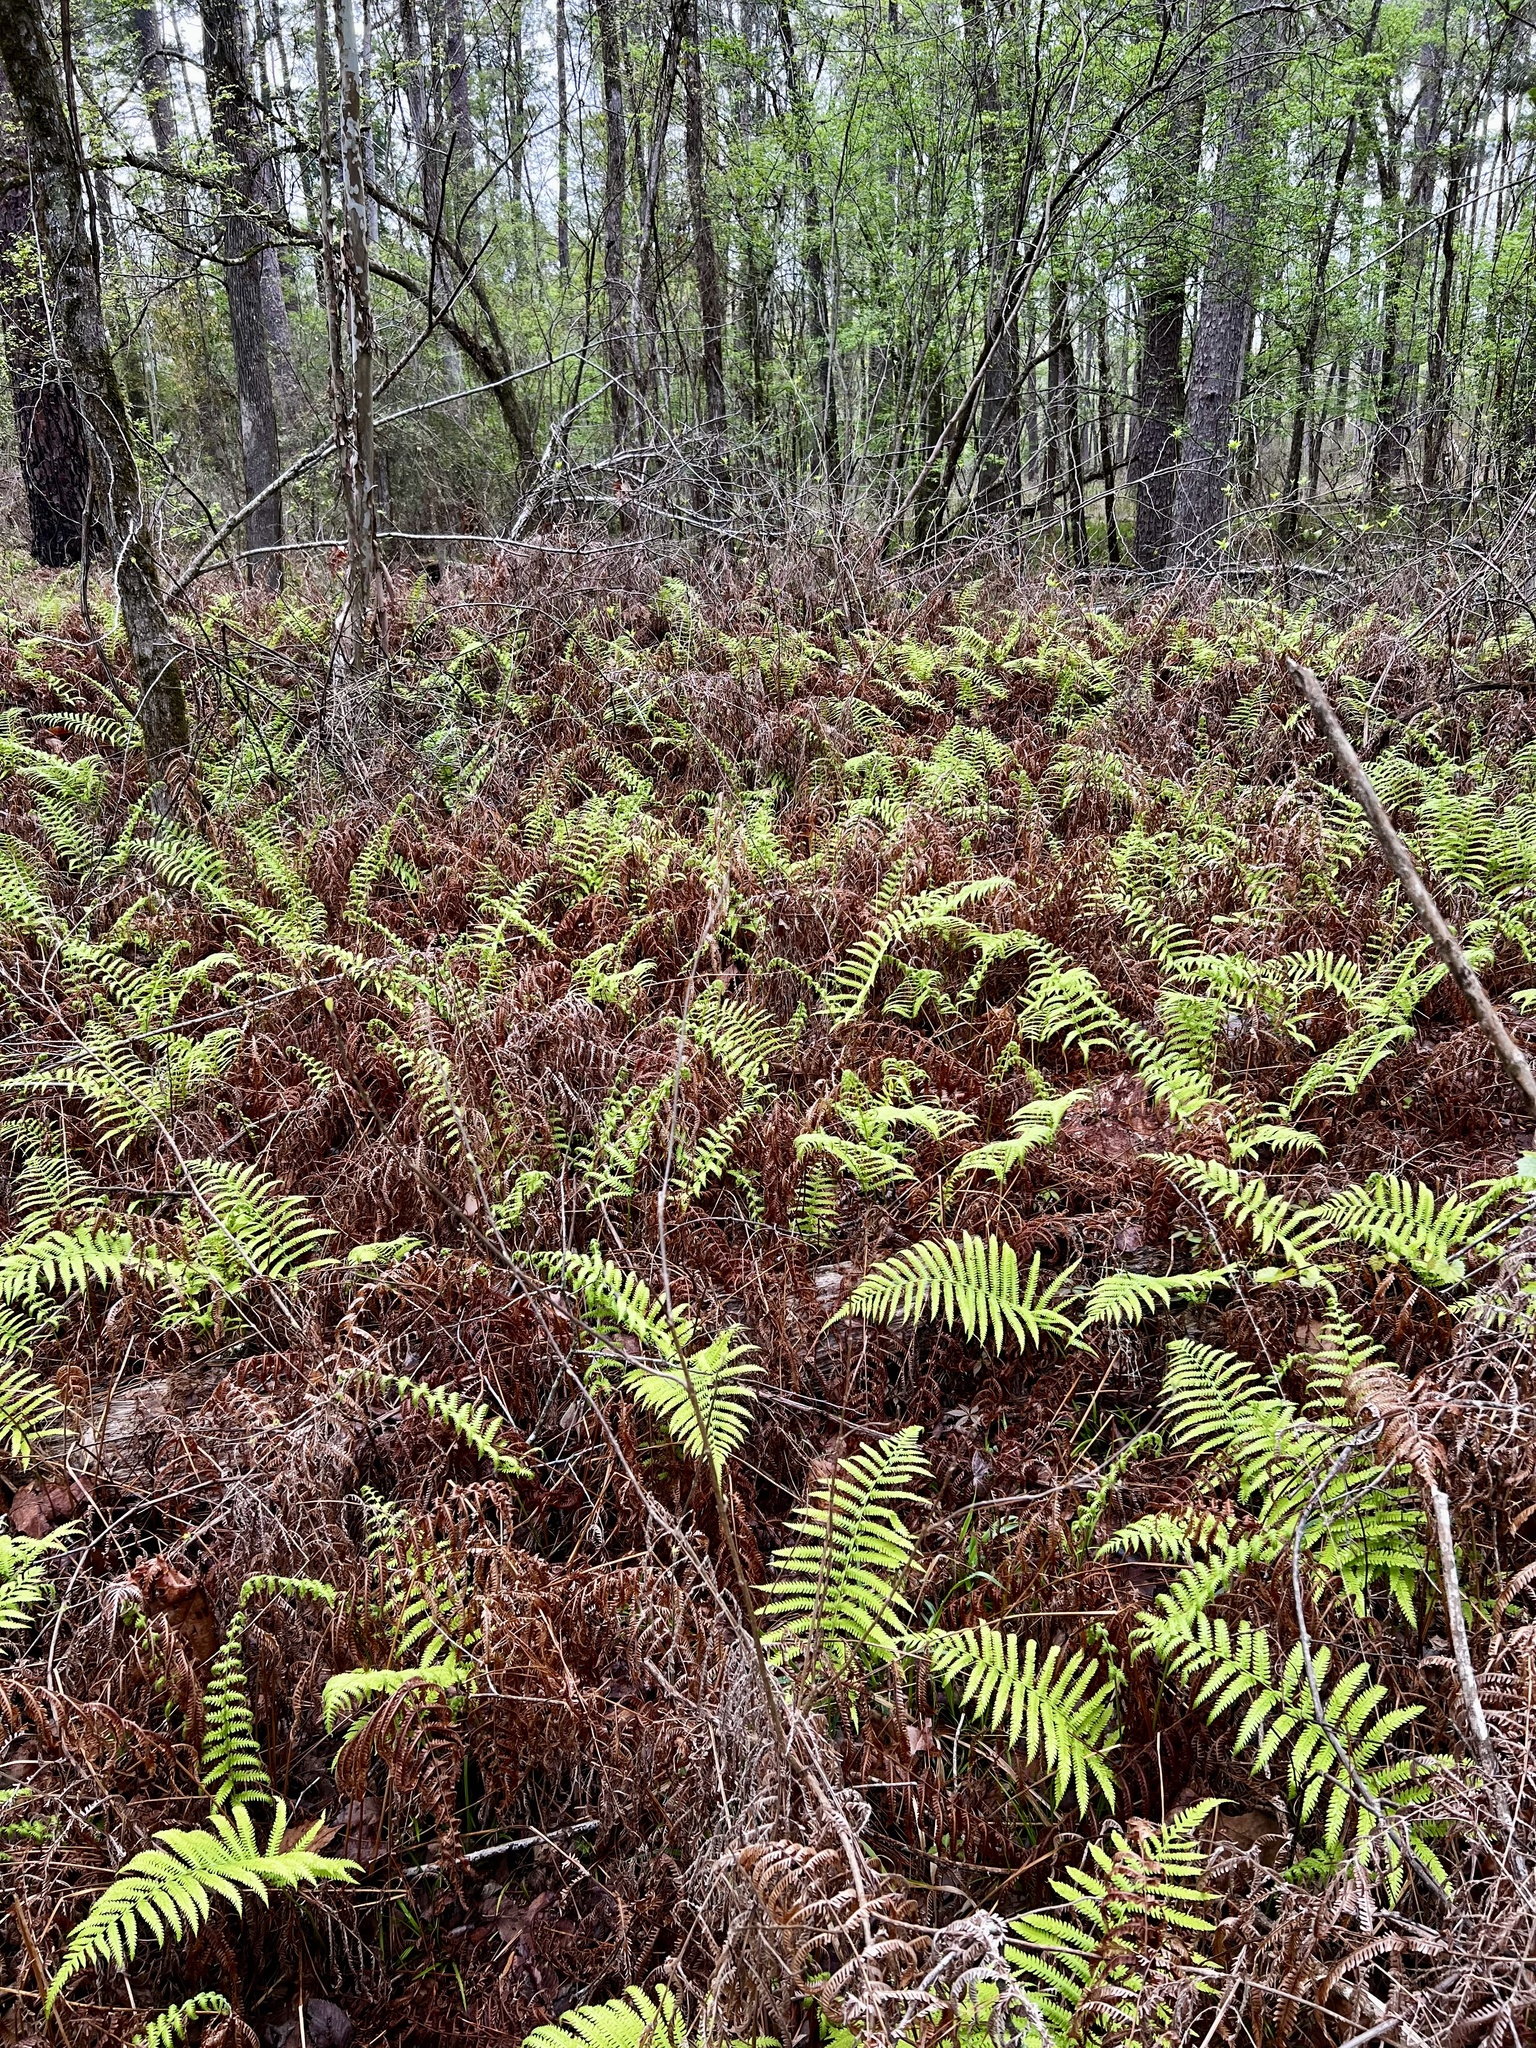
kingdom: Plantae
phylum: Tracheophyta
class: Polypodiopsida
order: Polypodiales
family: Thelypteridaceae
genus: Pelazoneuron
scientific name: Pelazoneuron kunthii
